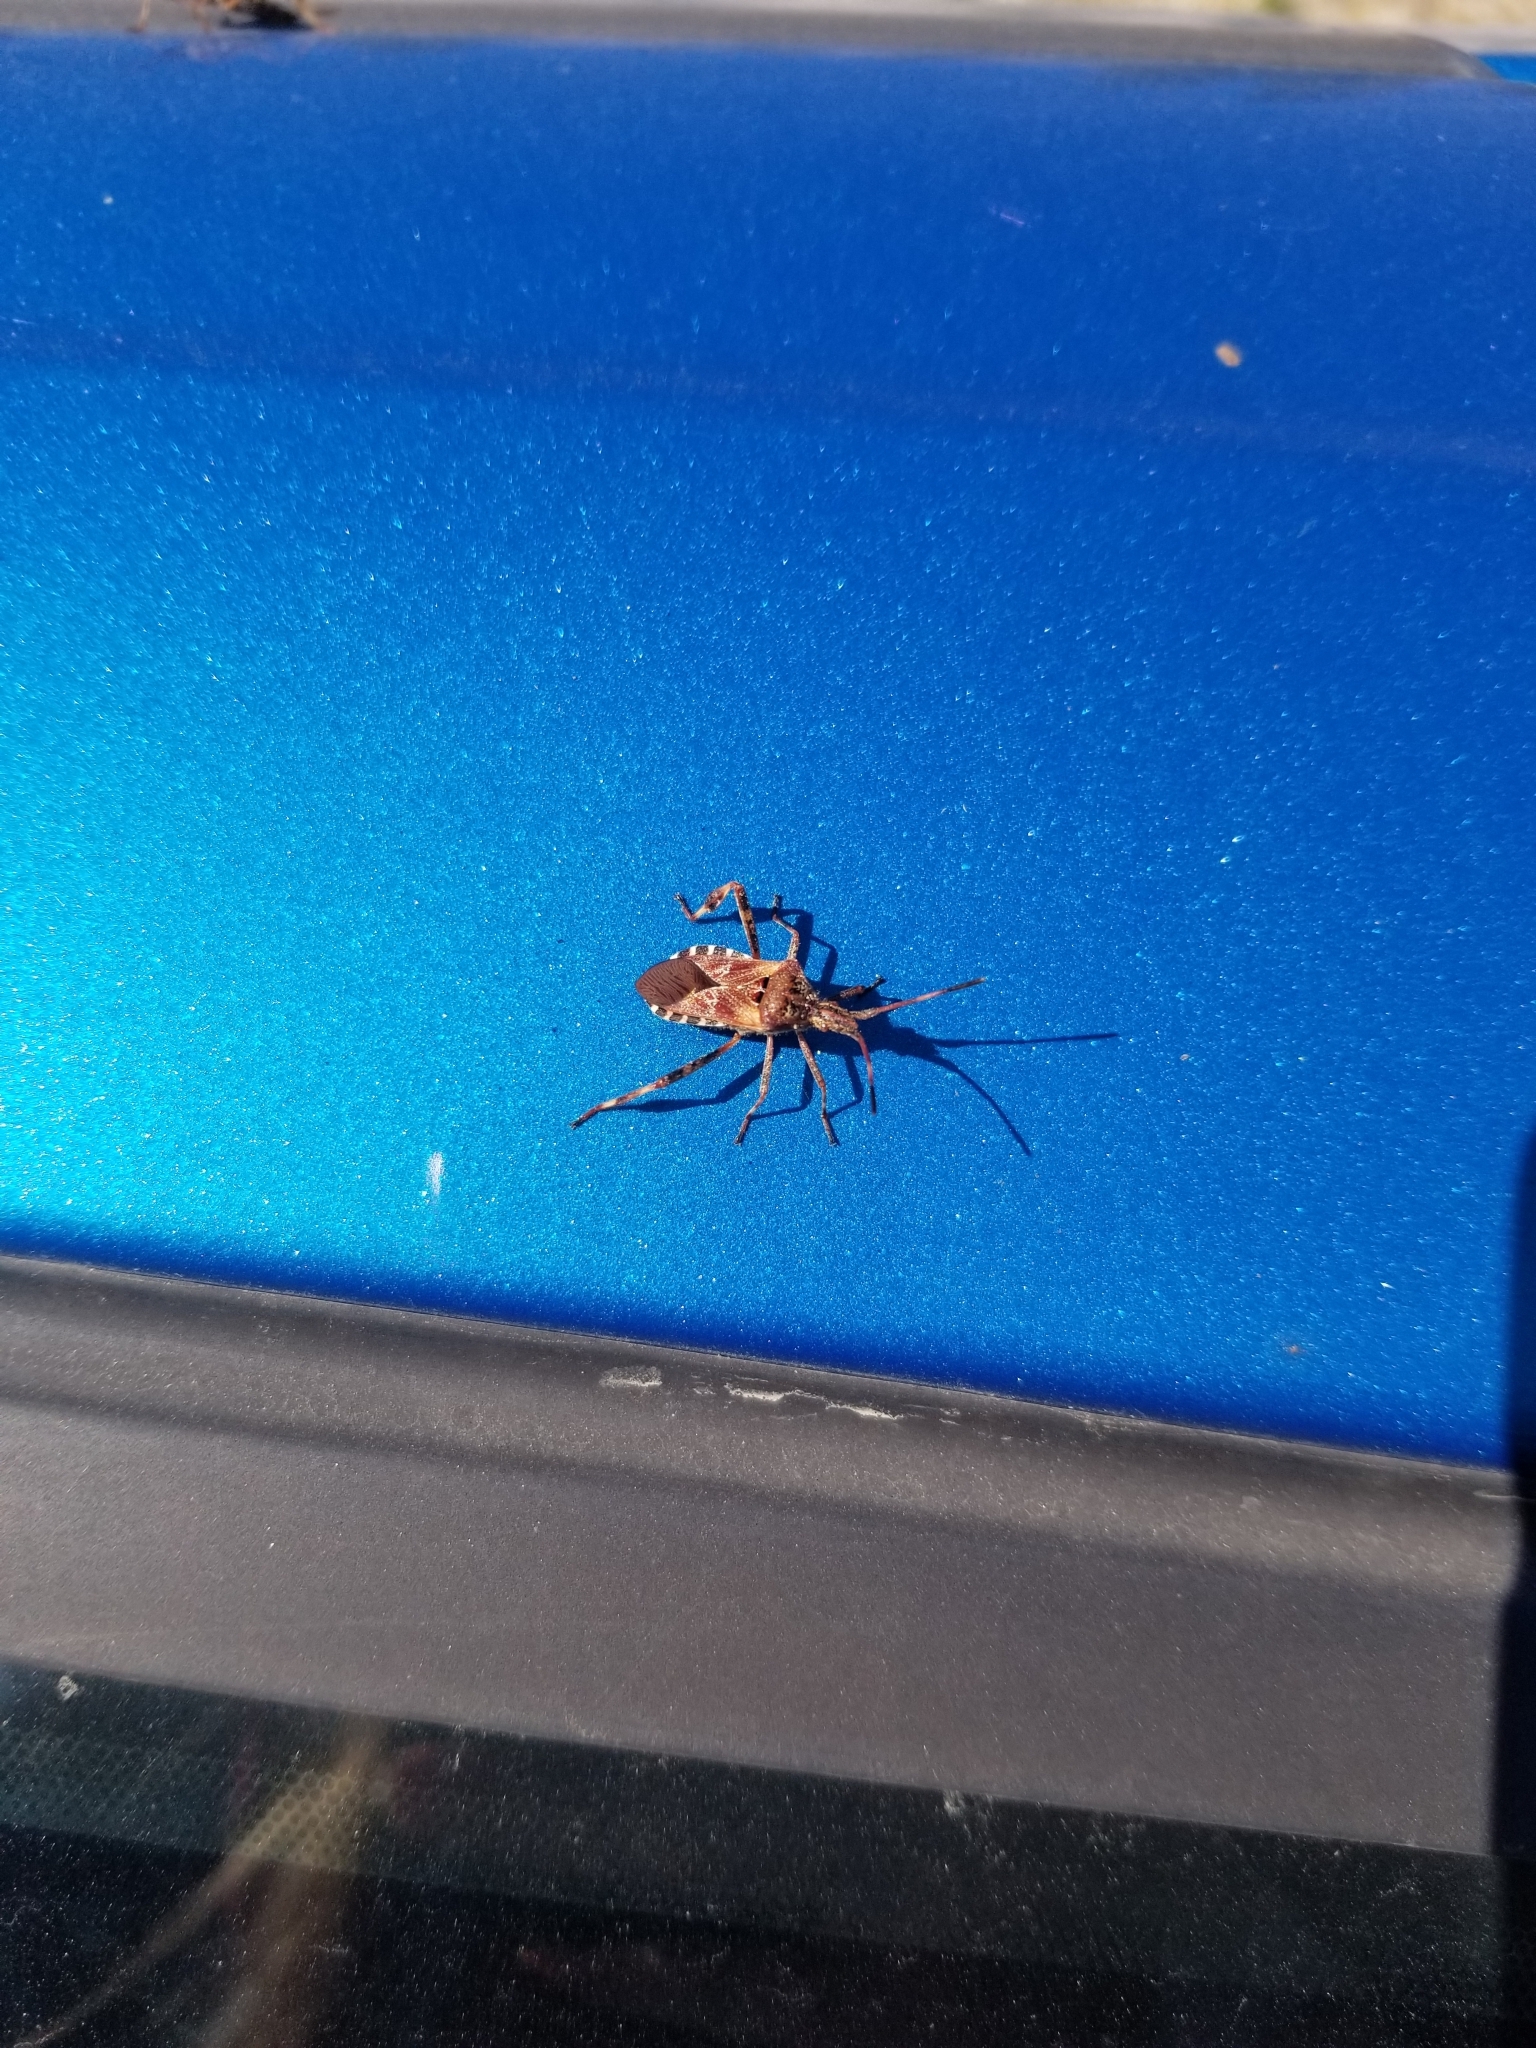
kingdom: Animalia
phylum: Arthropoda
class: Insecta
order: Hemiptera
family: Coreidae
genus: Leptoglossus
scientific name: Leptoglossus occidentalis
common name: Western conifer-seed bug
